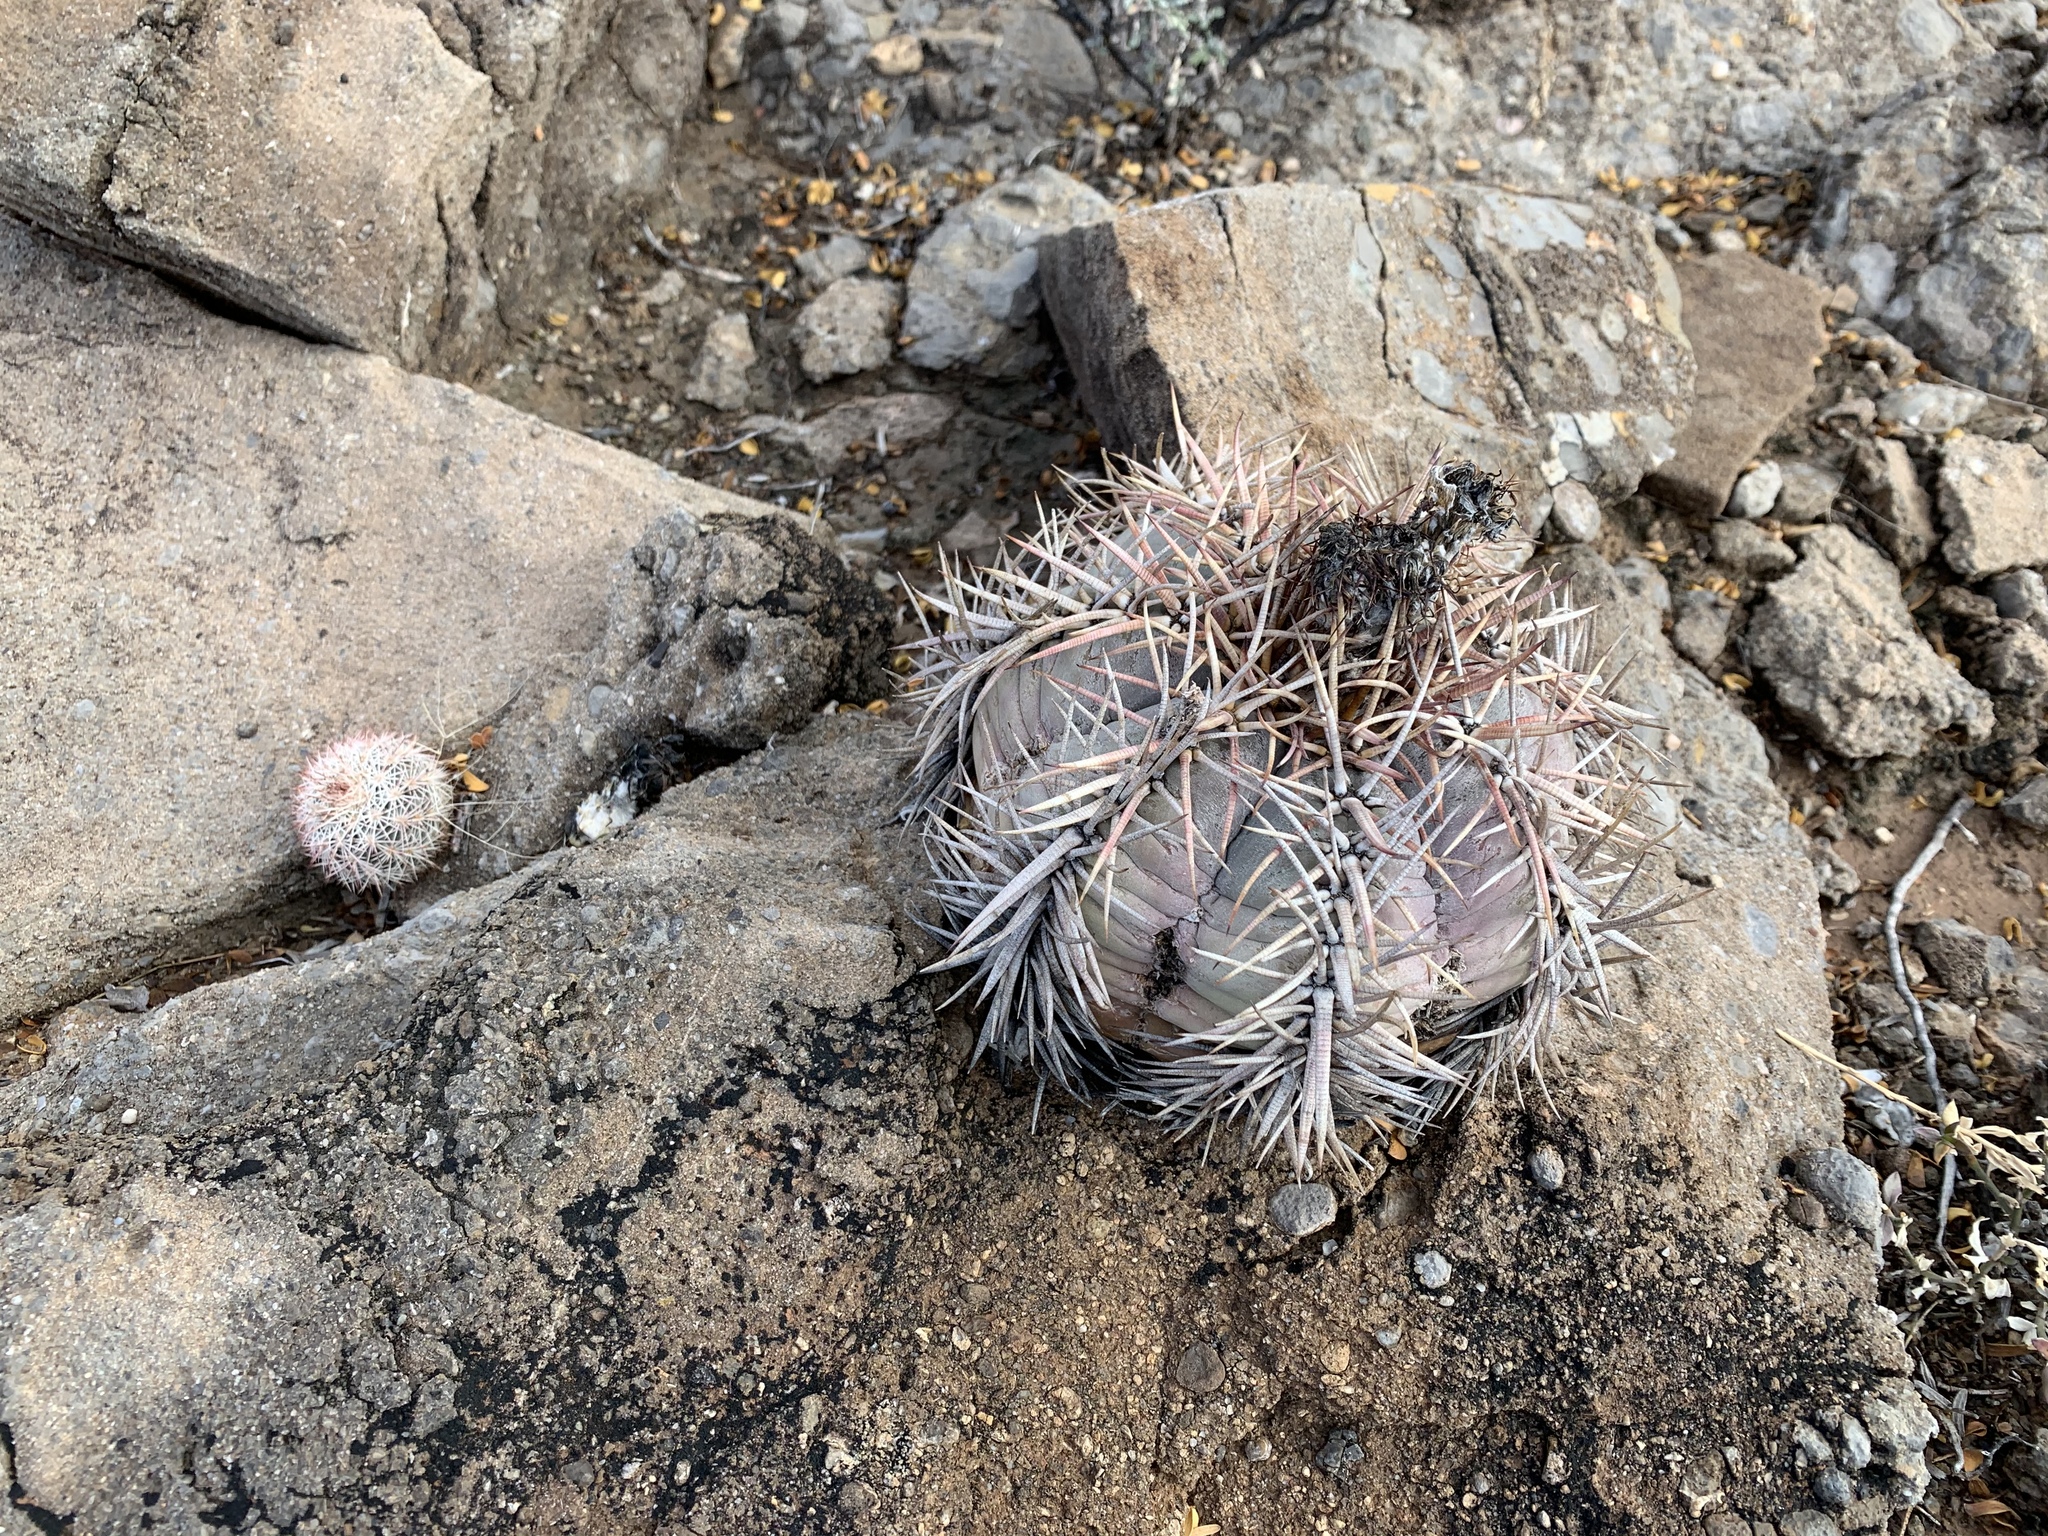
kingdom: Plantae
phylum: Tracheophyta
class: Magnoliopsida
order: Caryophyllales
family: Cactaceae
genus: Echinocactus
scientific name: Echinocactus horizonthalonius
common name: Devilshead
